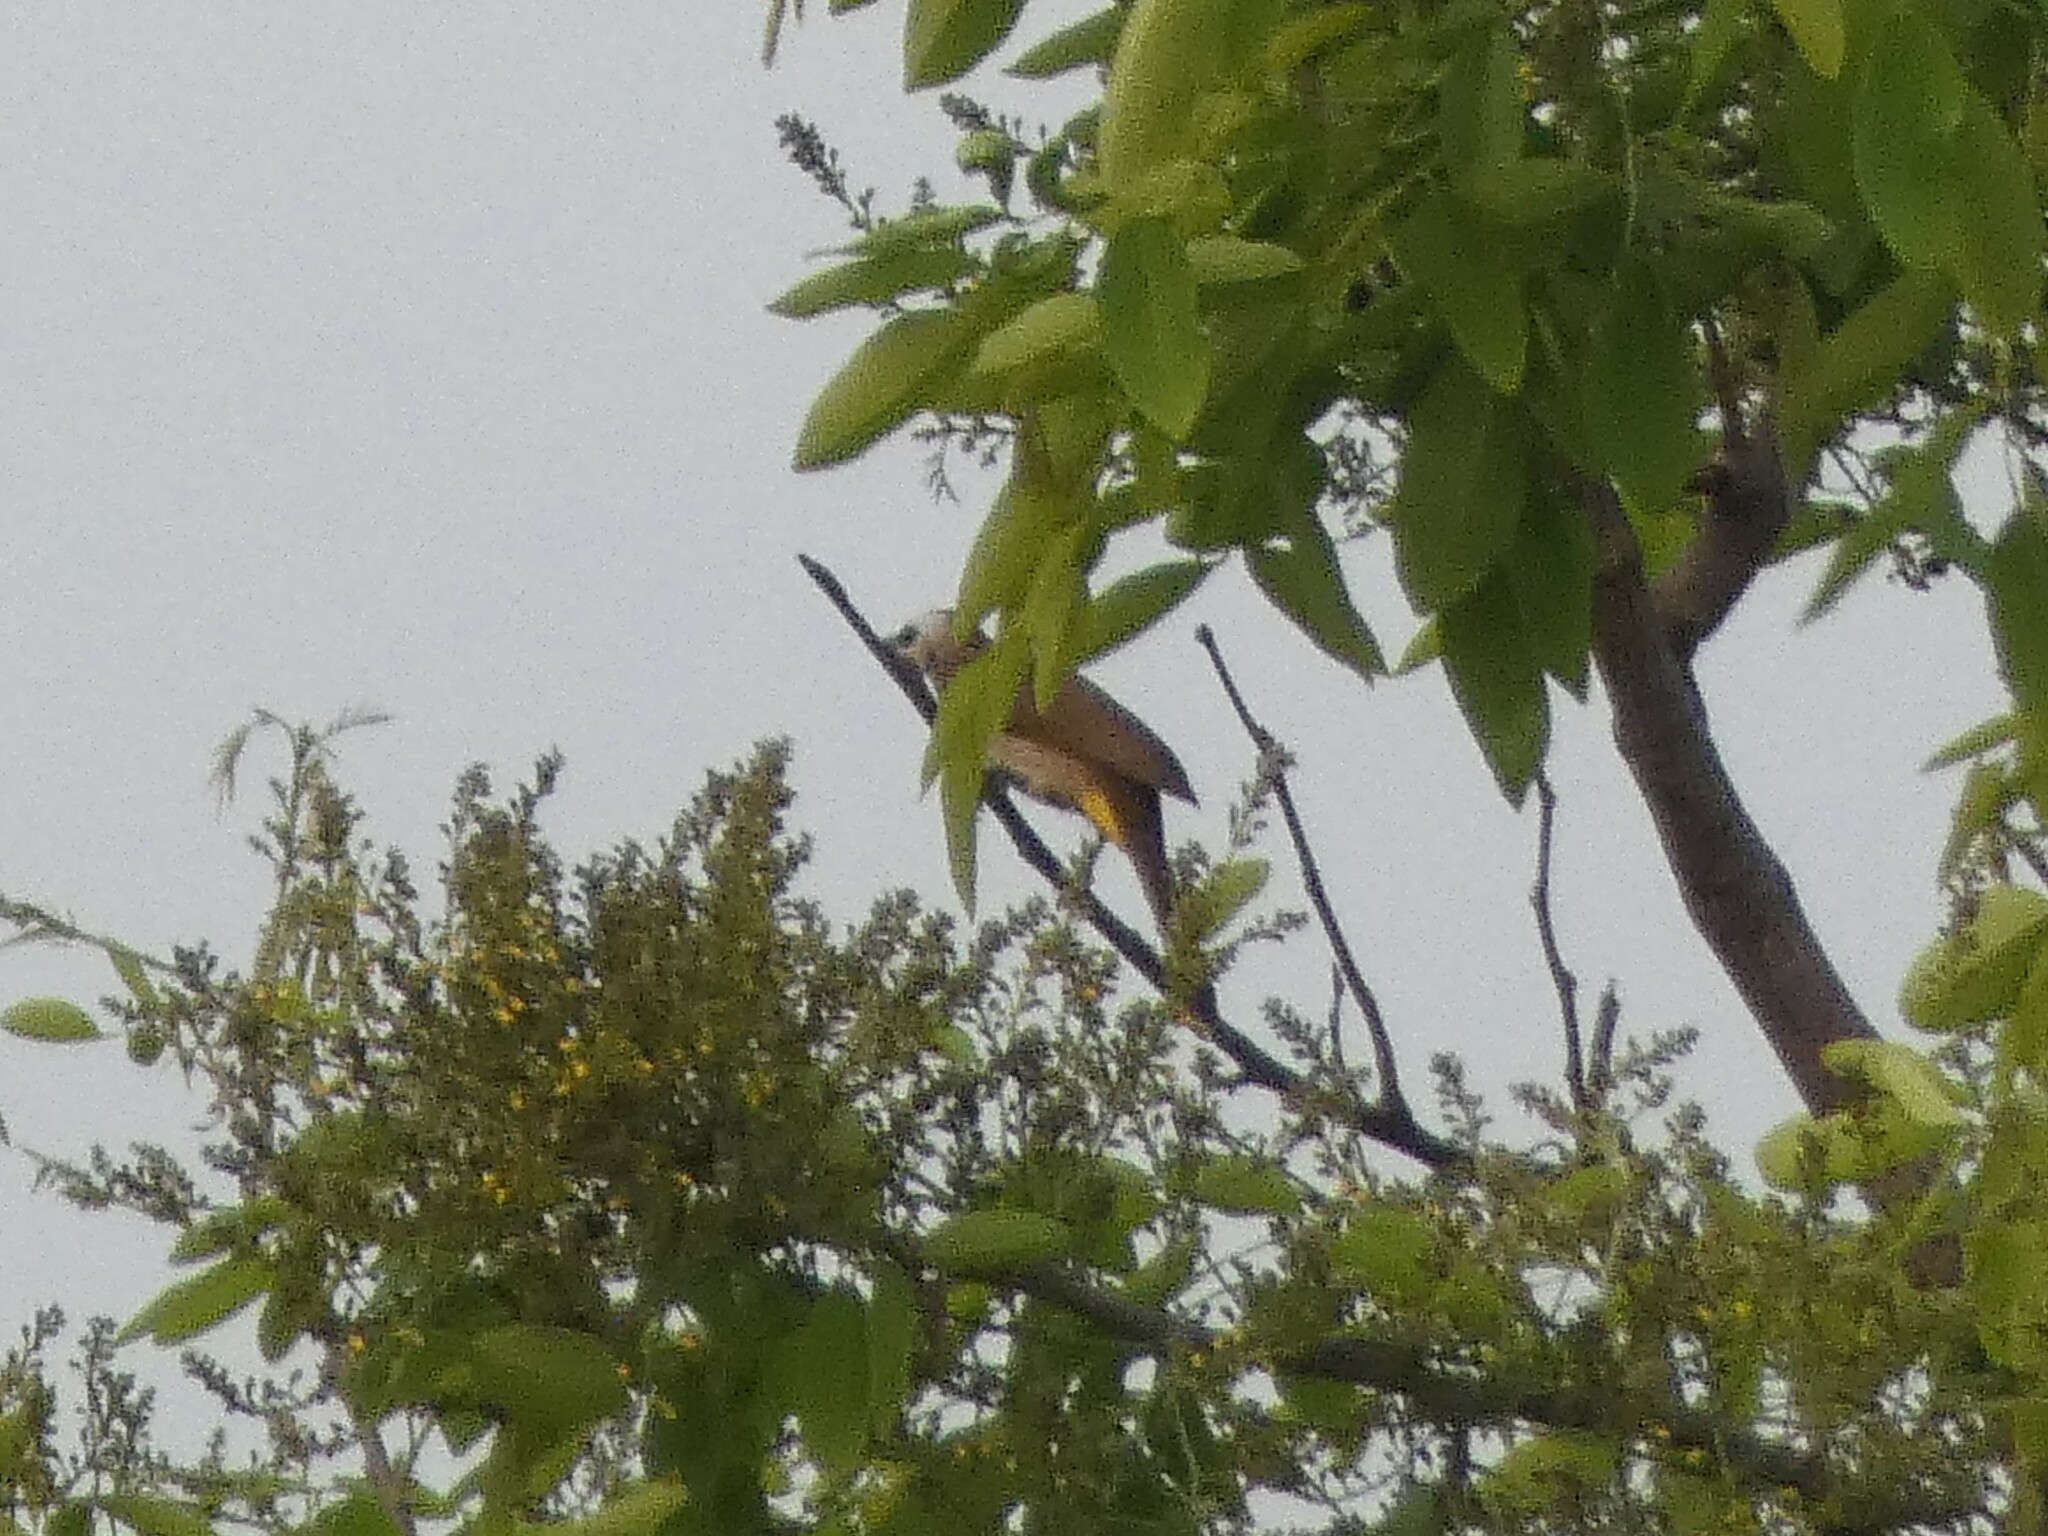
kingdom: Animalia
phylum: Chordata
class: Aves
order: Passeriformes
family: Pycnonotidae
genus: Pycnonotus
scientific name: Pycnonotus goiavier
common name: Yellow-vented bulbul
